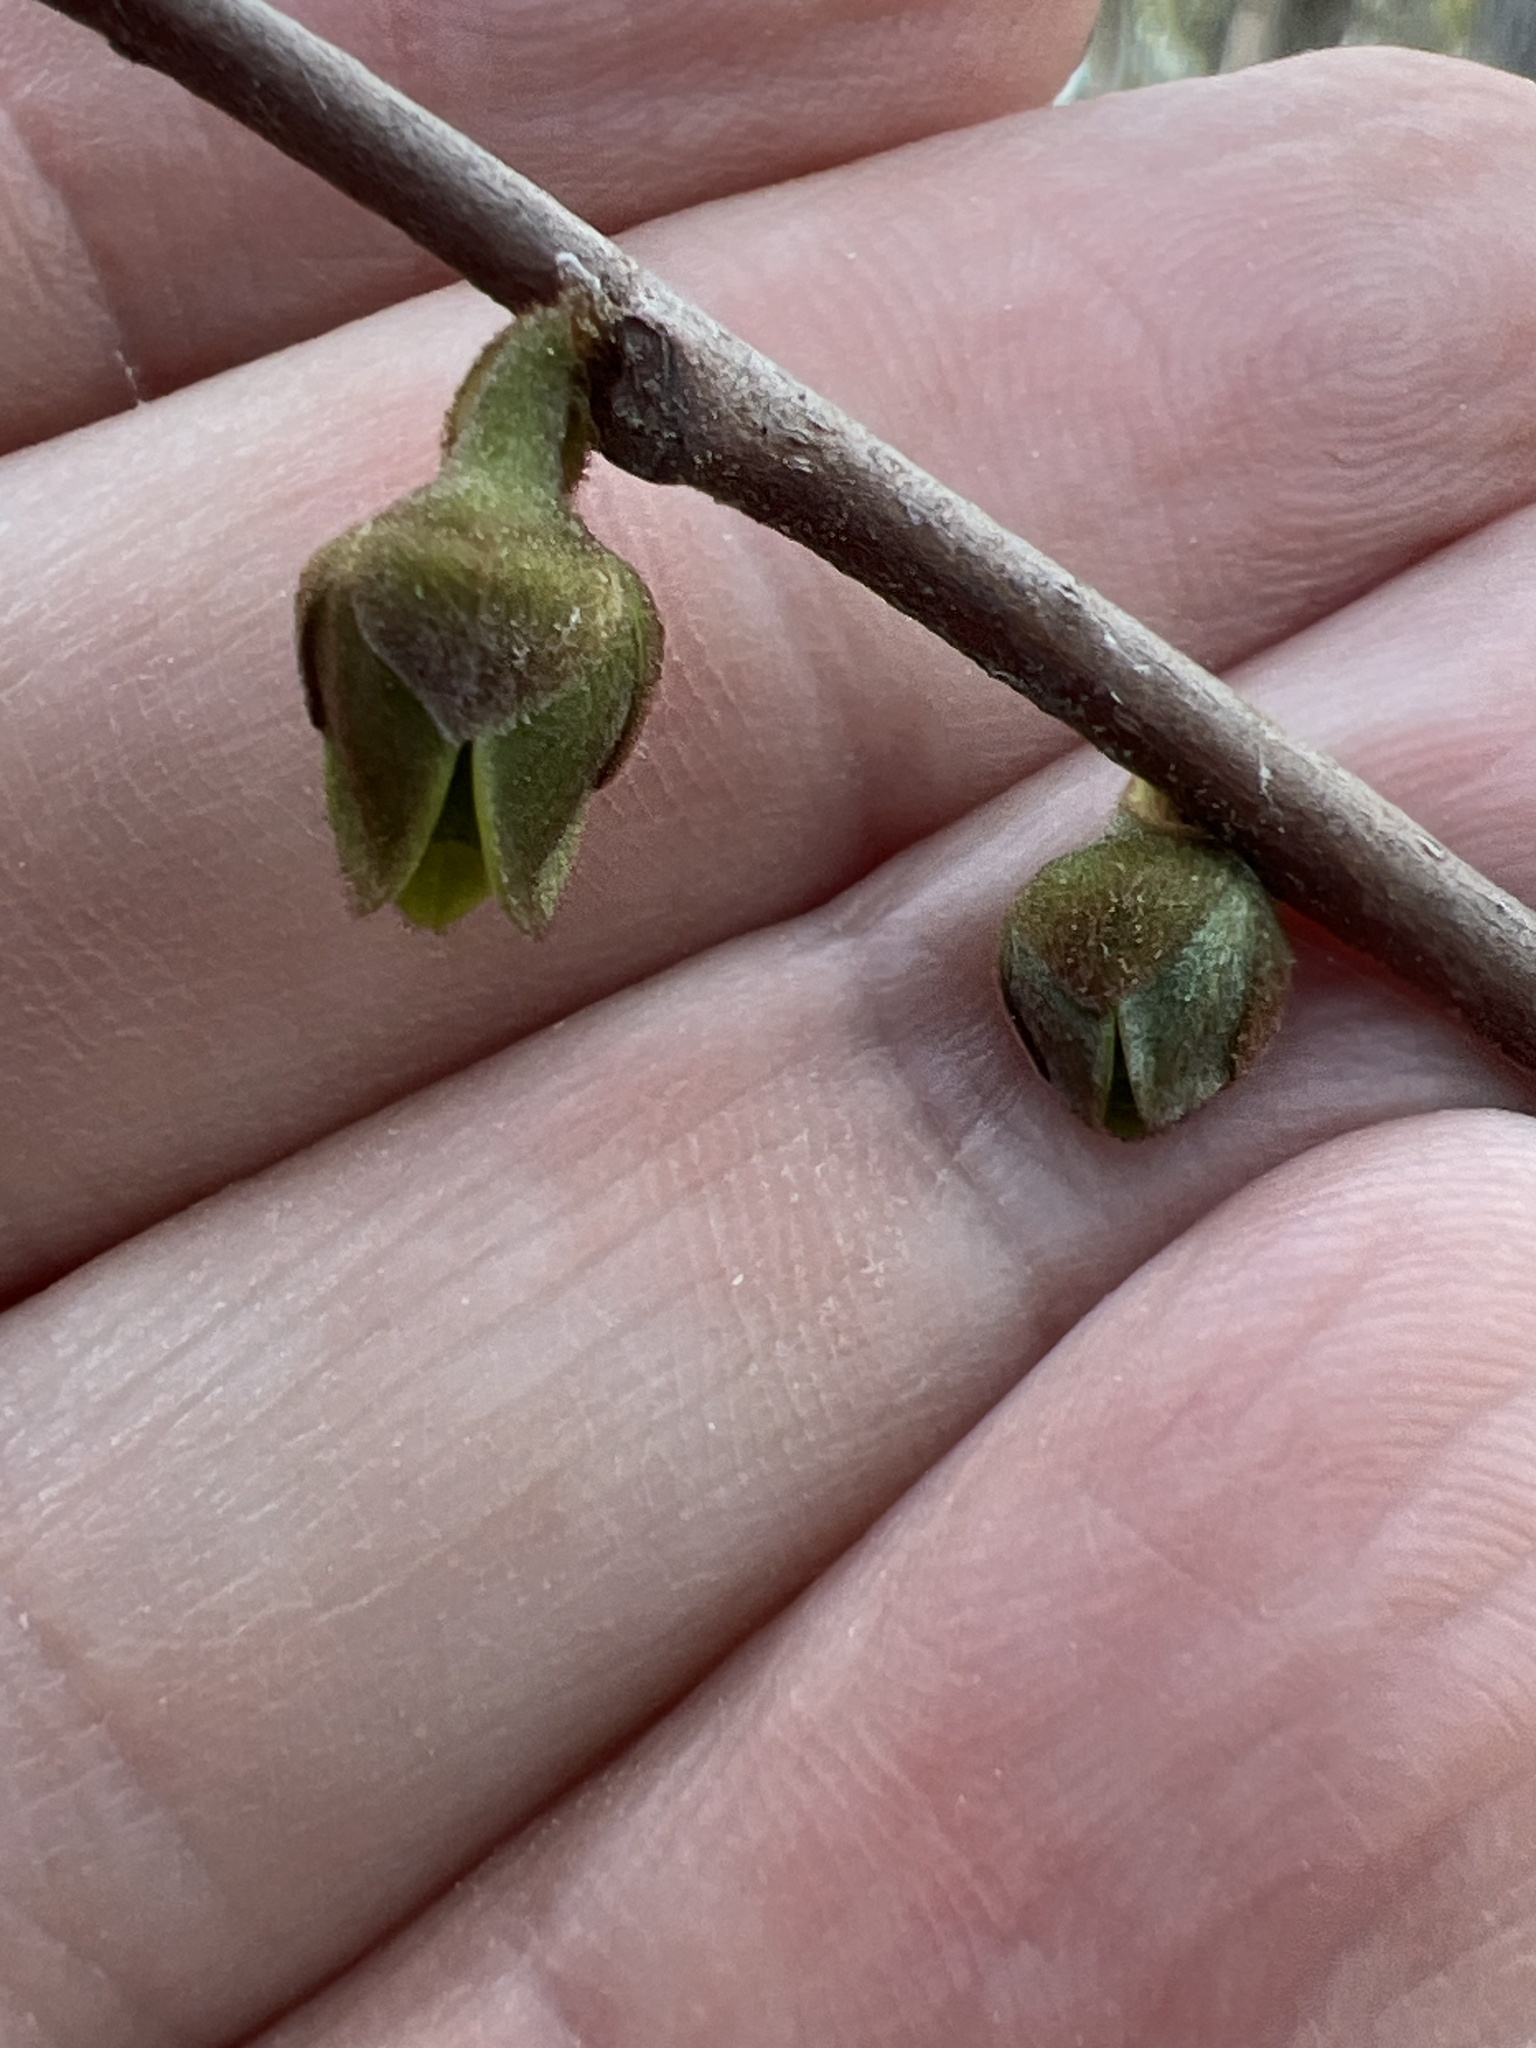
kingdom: Plantae
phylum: Tracheophyta
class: Magnoliopsida
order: Magnoliales
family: Annonaceae
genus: Asimina
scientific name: Asimina parviflora
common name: Dwarf pawpaw
